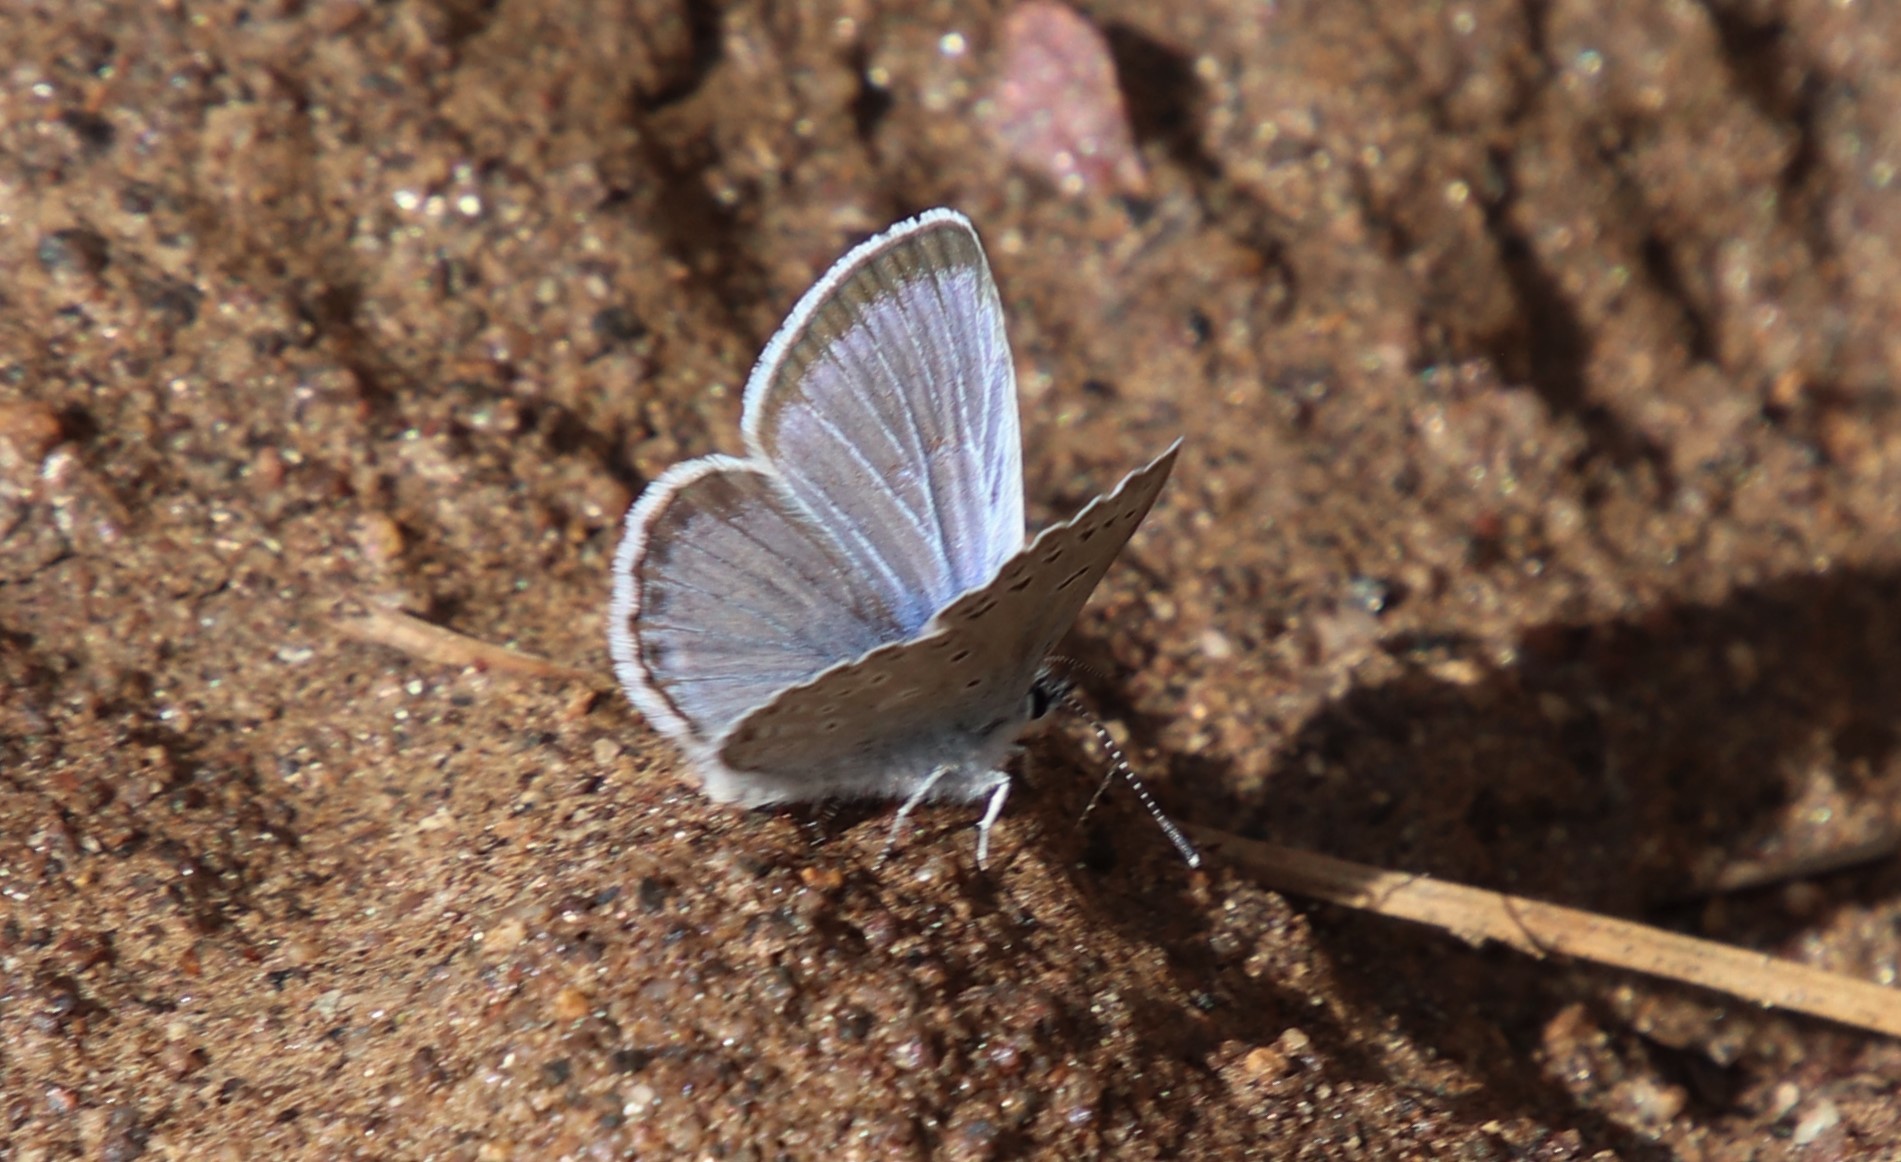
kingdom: Animalia
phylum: Arthropoda
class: Insecta
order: Lepidoptera
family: Lycaenidae
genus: Icaricia
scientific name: Icaricia icarioides
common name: Boisduval's blue
